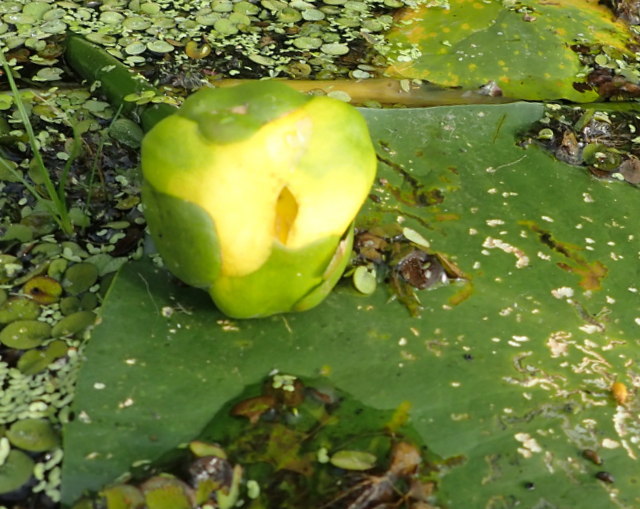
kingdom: Plantae
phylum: Tracheophyta
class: Magnoliopsida
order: Nymphaeales
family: Nymphaeaceae
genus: Nuphar
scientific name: Nuphar advena
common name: Spatter-dock
